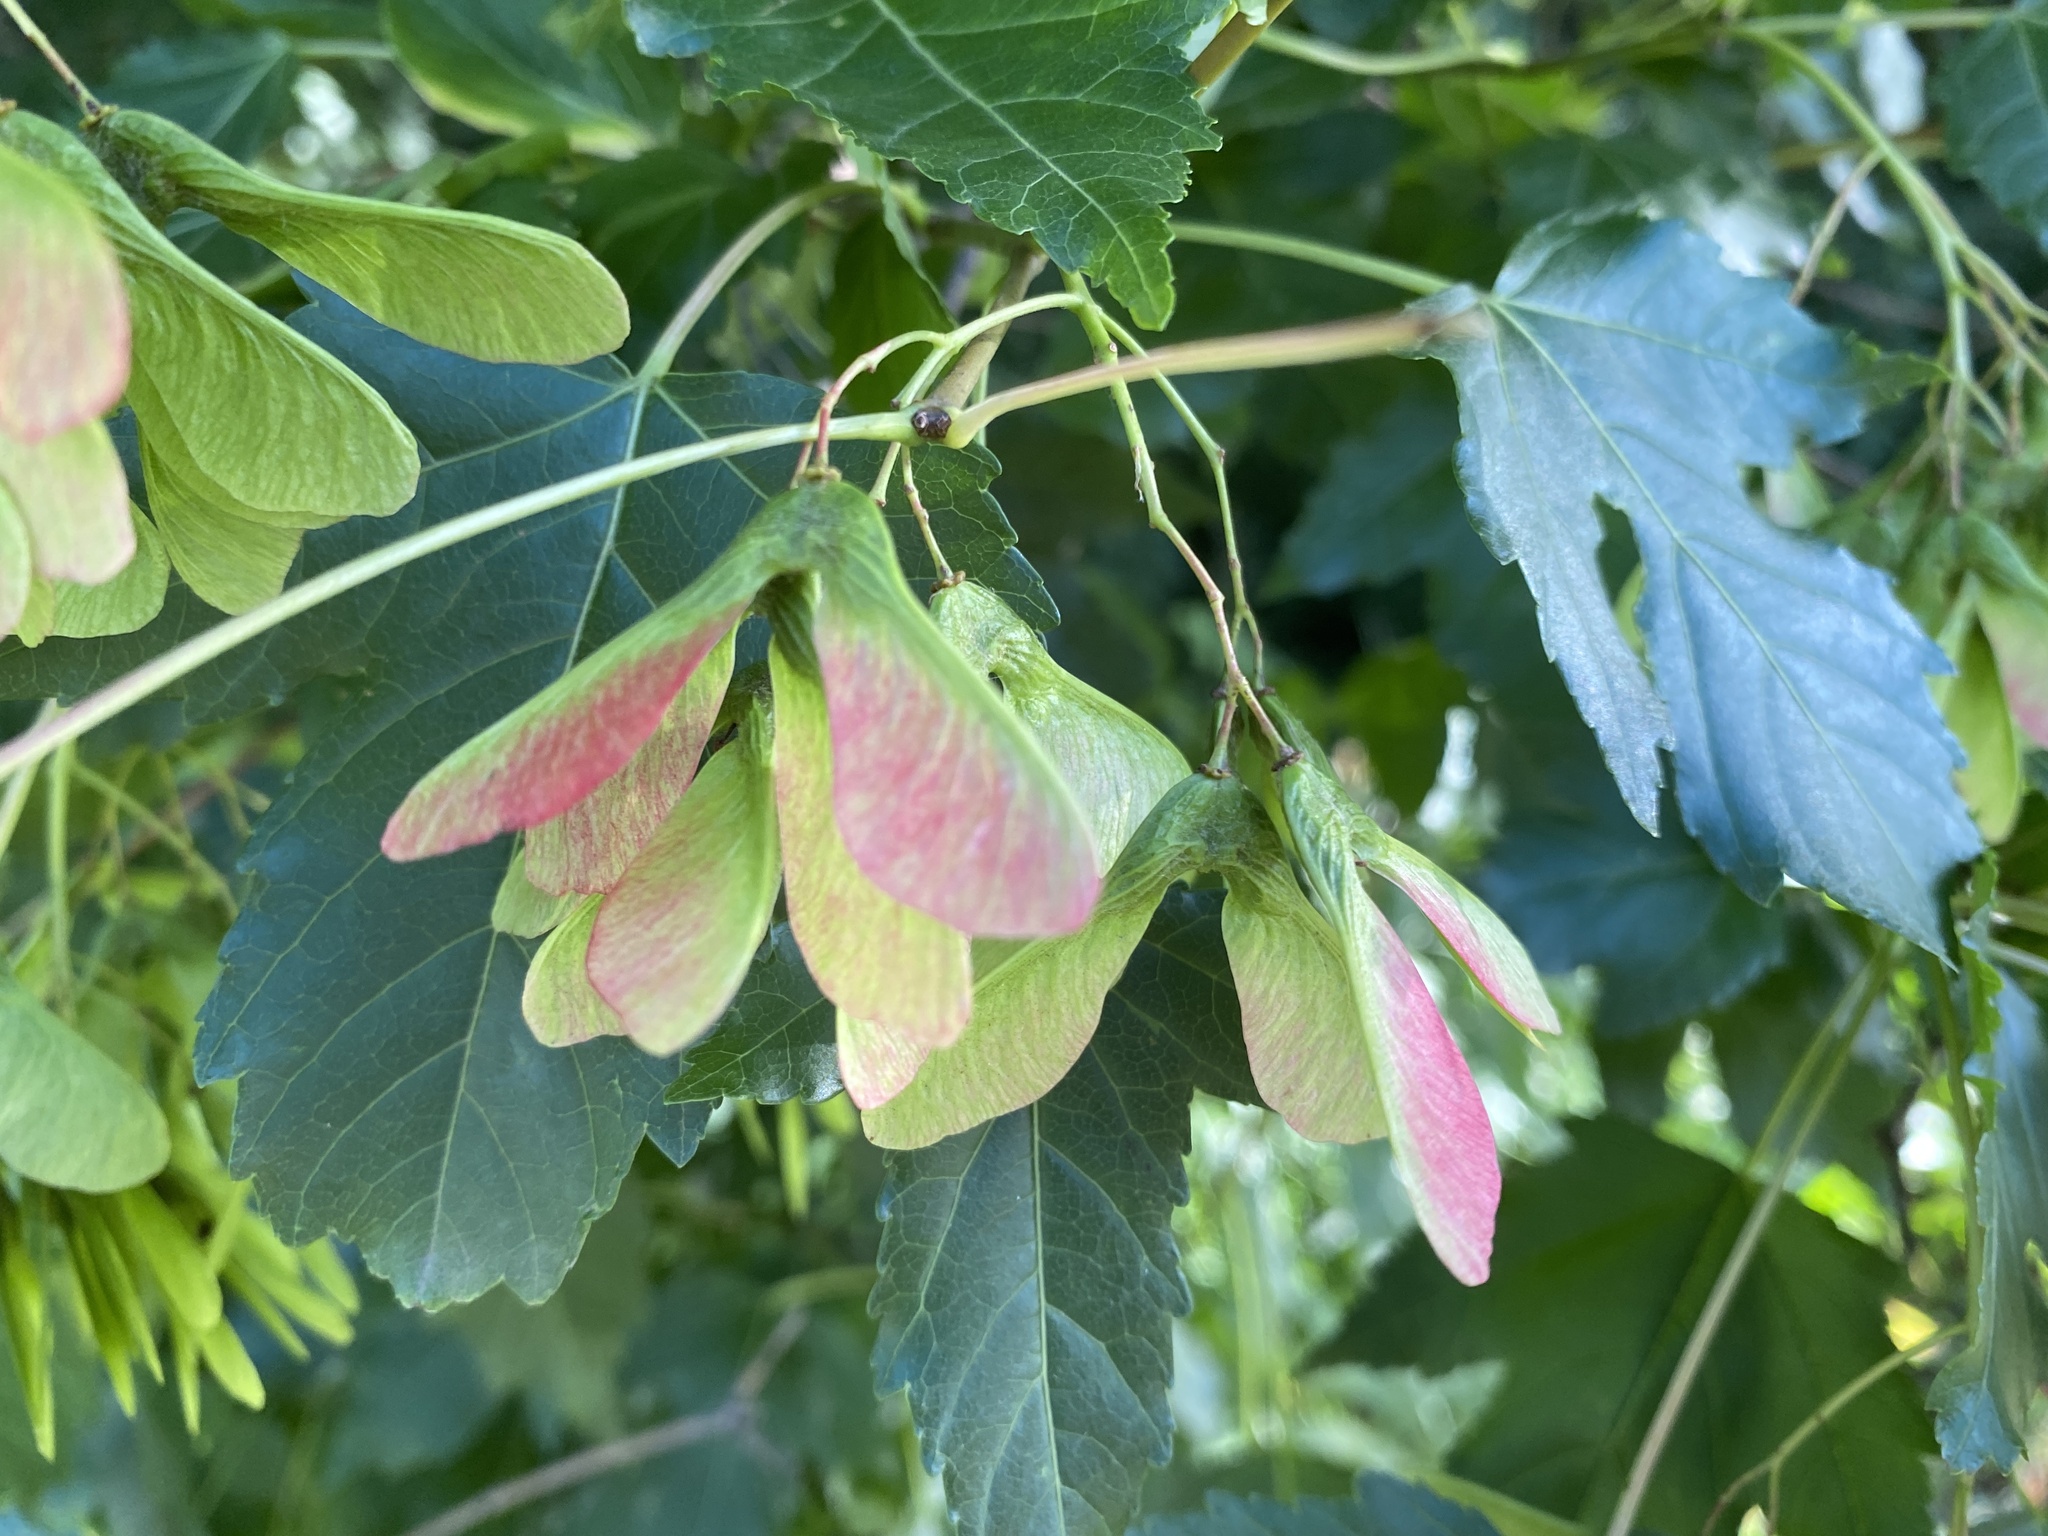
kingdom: Plantae
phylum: Tracheophyta
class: Magnoliopsida
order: Sapindales
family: Sapindaceae
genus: Acer
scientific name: Acer tataricum
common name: Tartar maple
